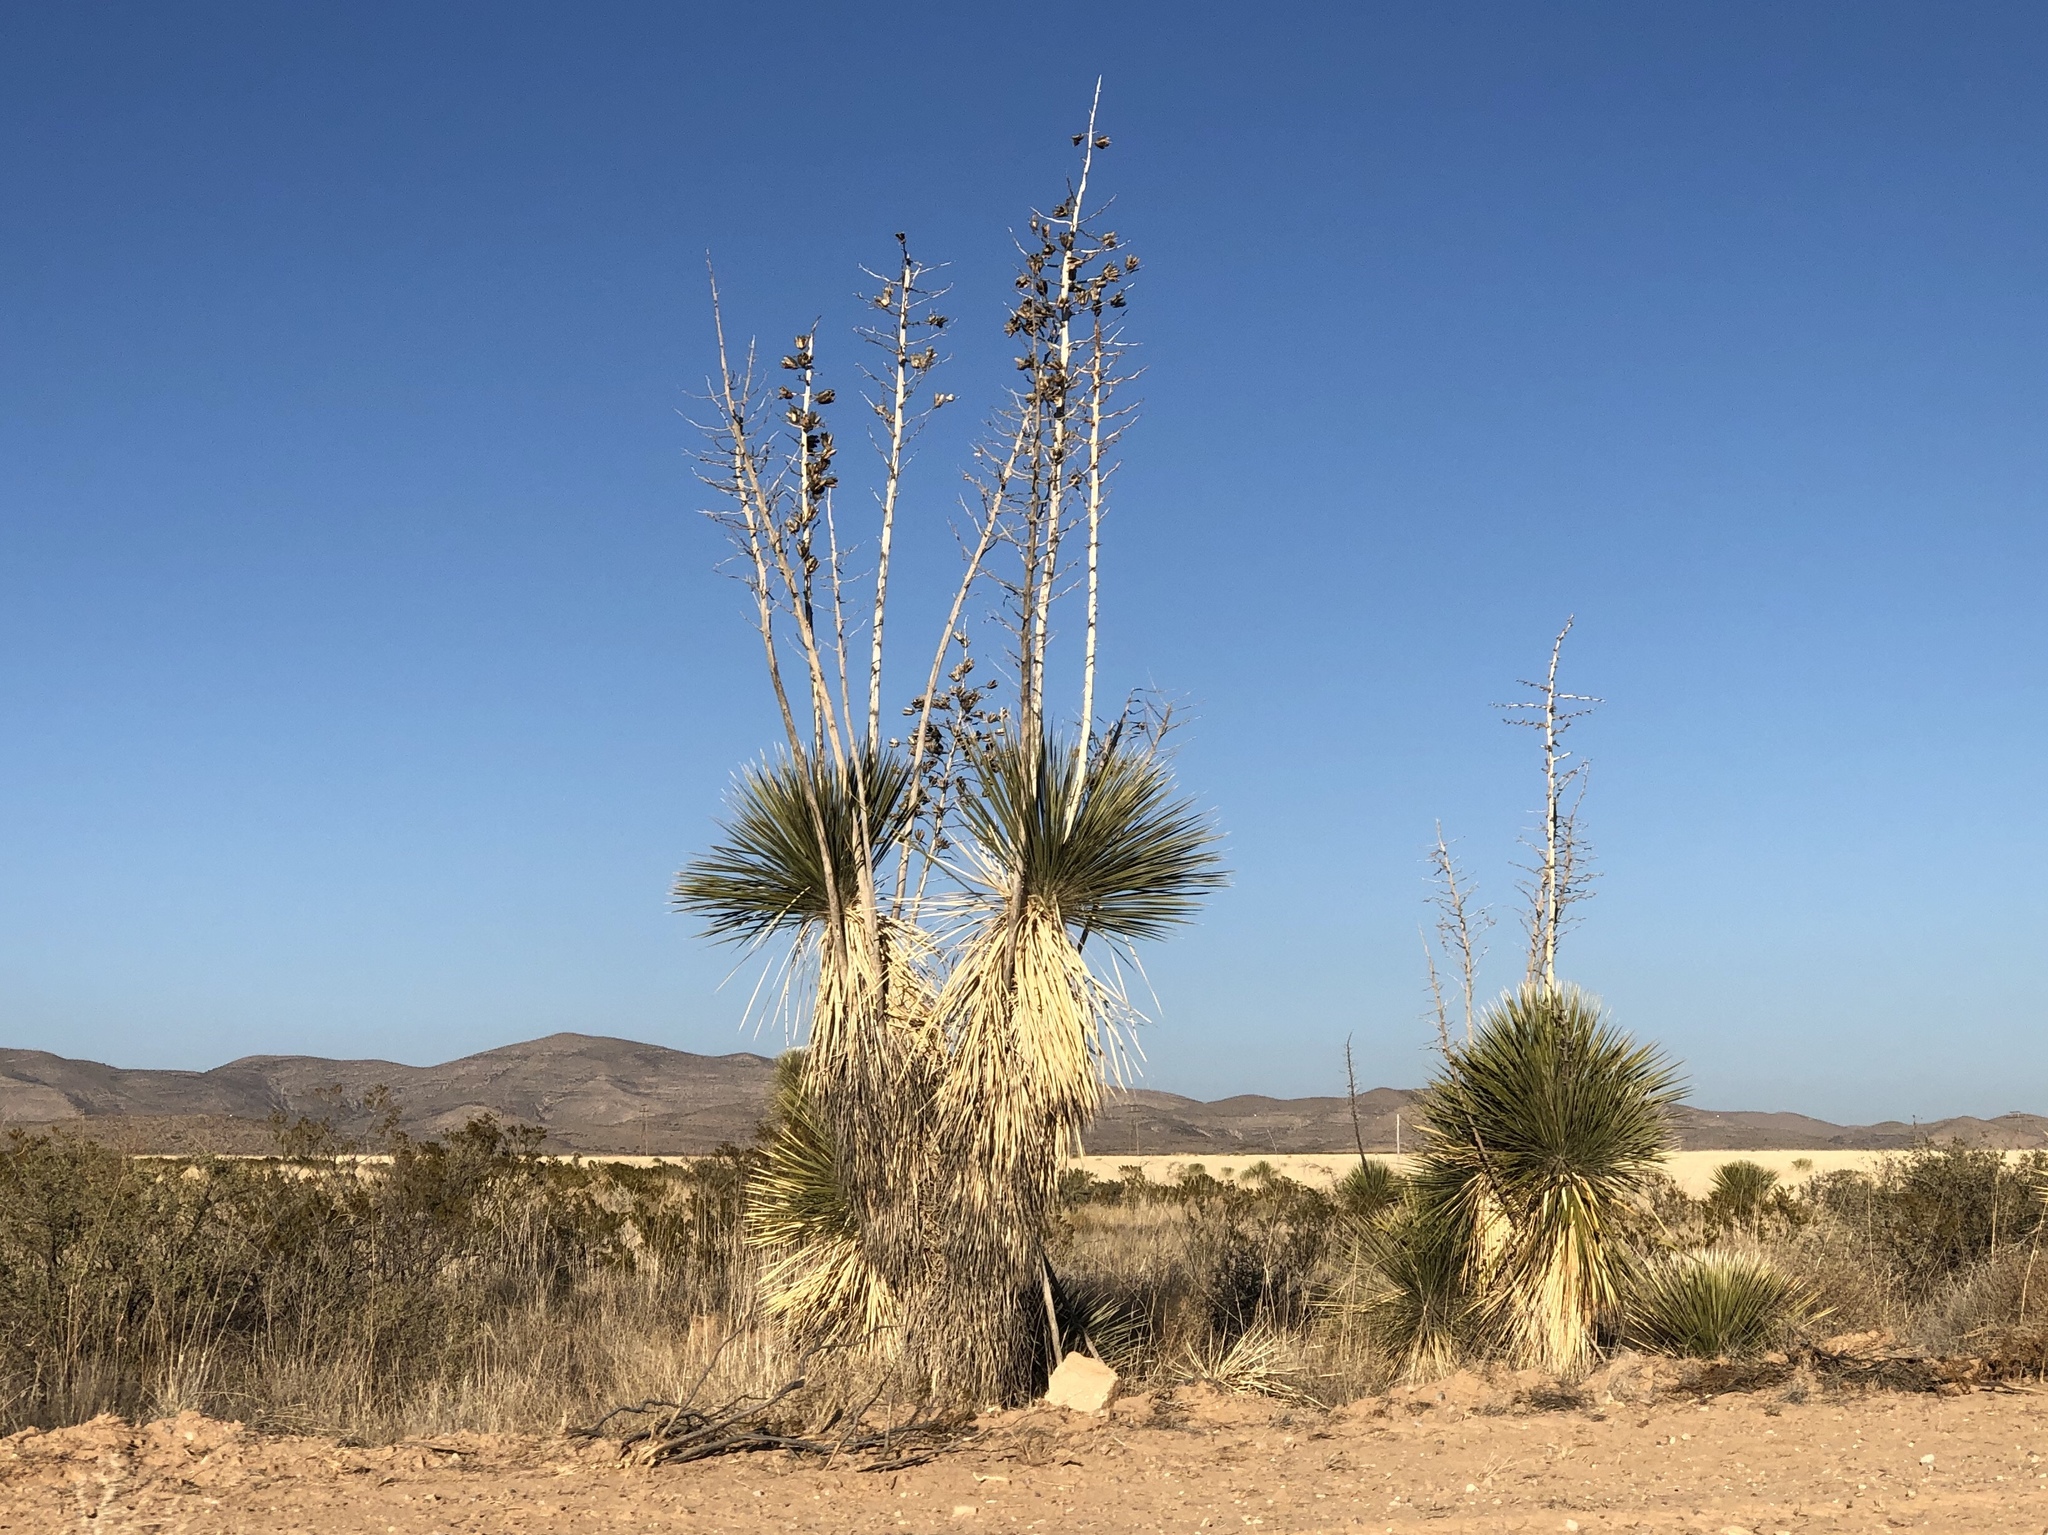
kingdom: Plantae
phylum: Tracheophyta
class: Liliopsida
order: Asparagales
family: Asparagaceae
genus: Yucca
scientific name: Yucca elata
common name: Palmella
